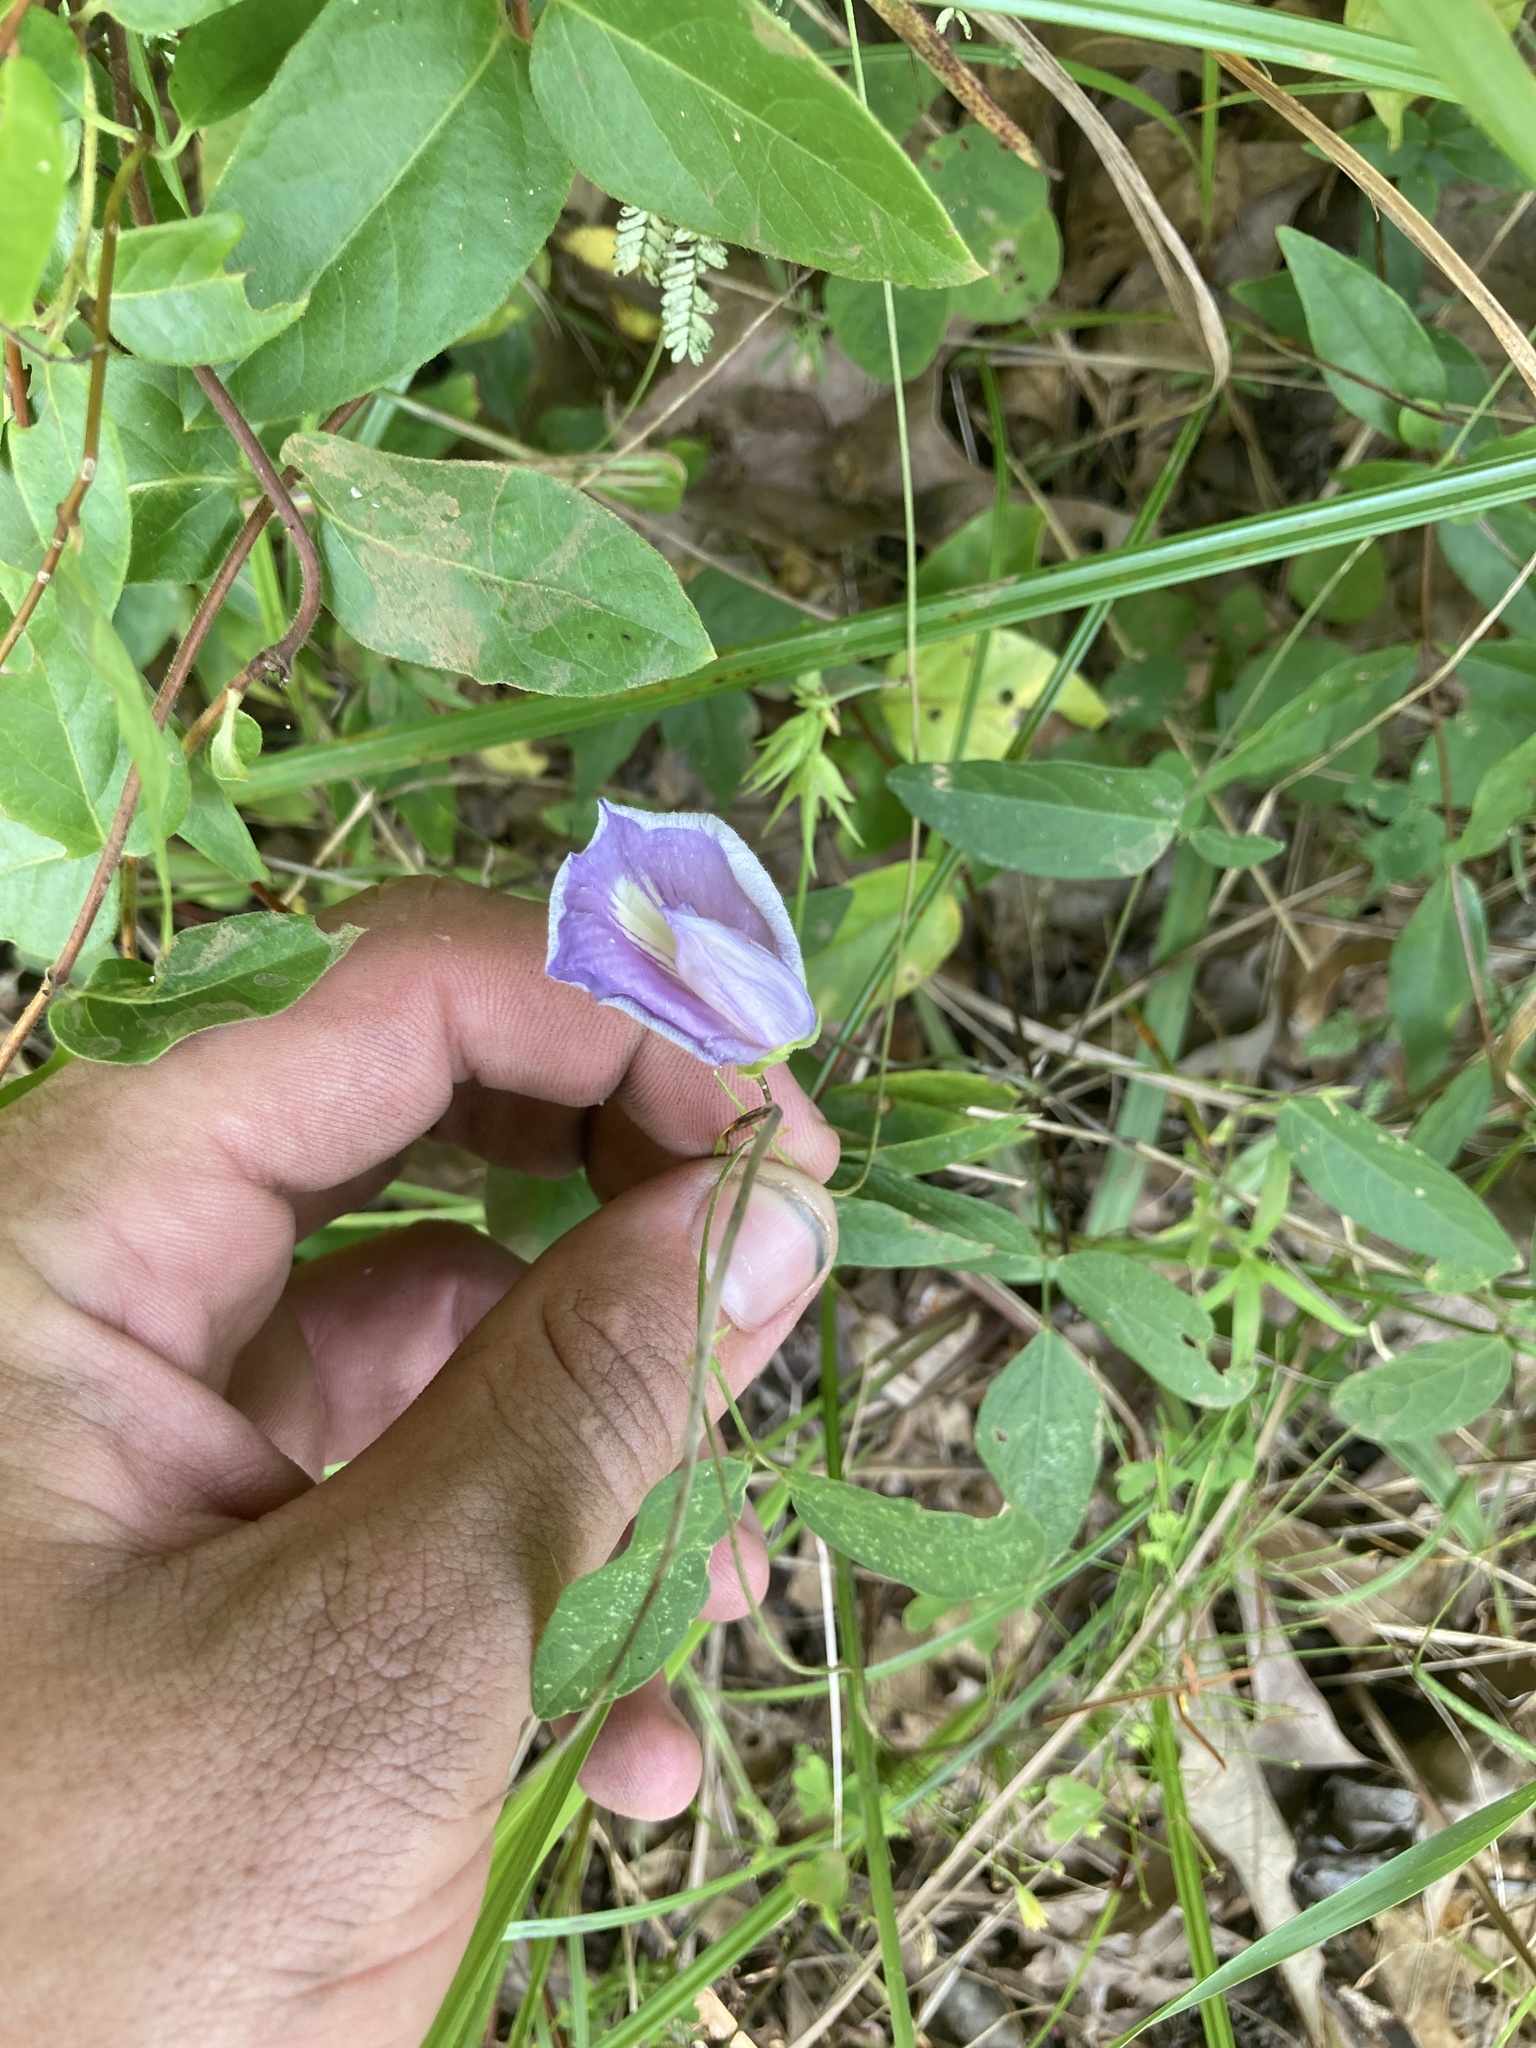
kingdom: Plantae
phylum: Tracheophyta
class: Magnoliopsida
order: Fabales
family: Fabaceae
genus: Centrosema
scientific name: Centrosema virginianum
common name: Butterfly-pea
